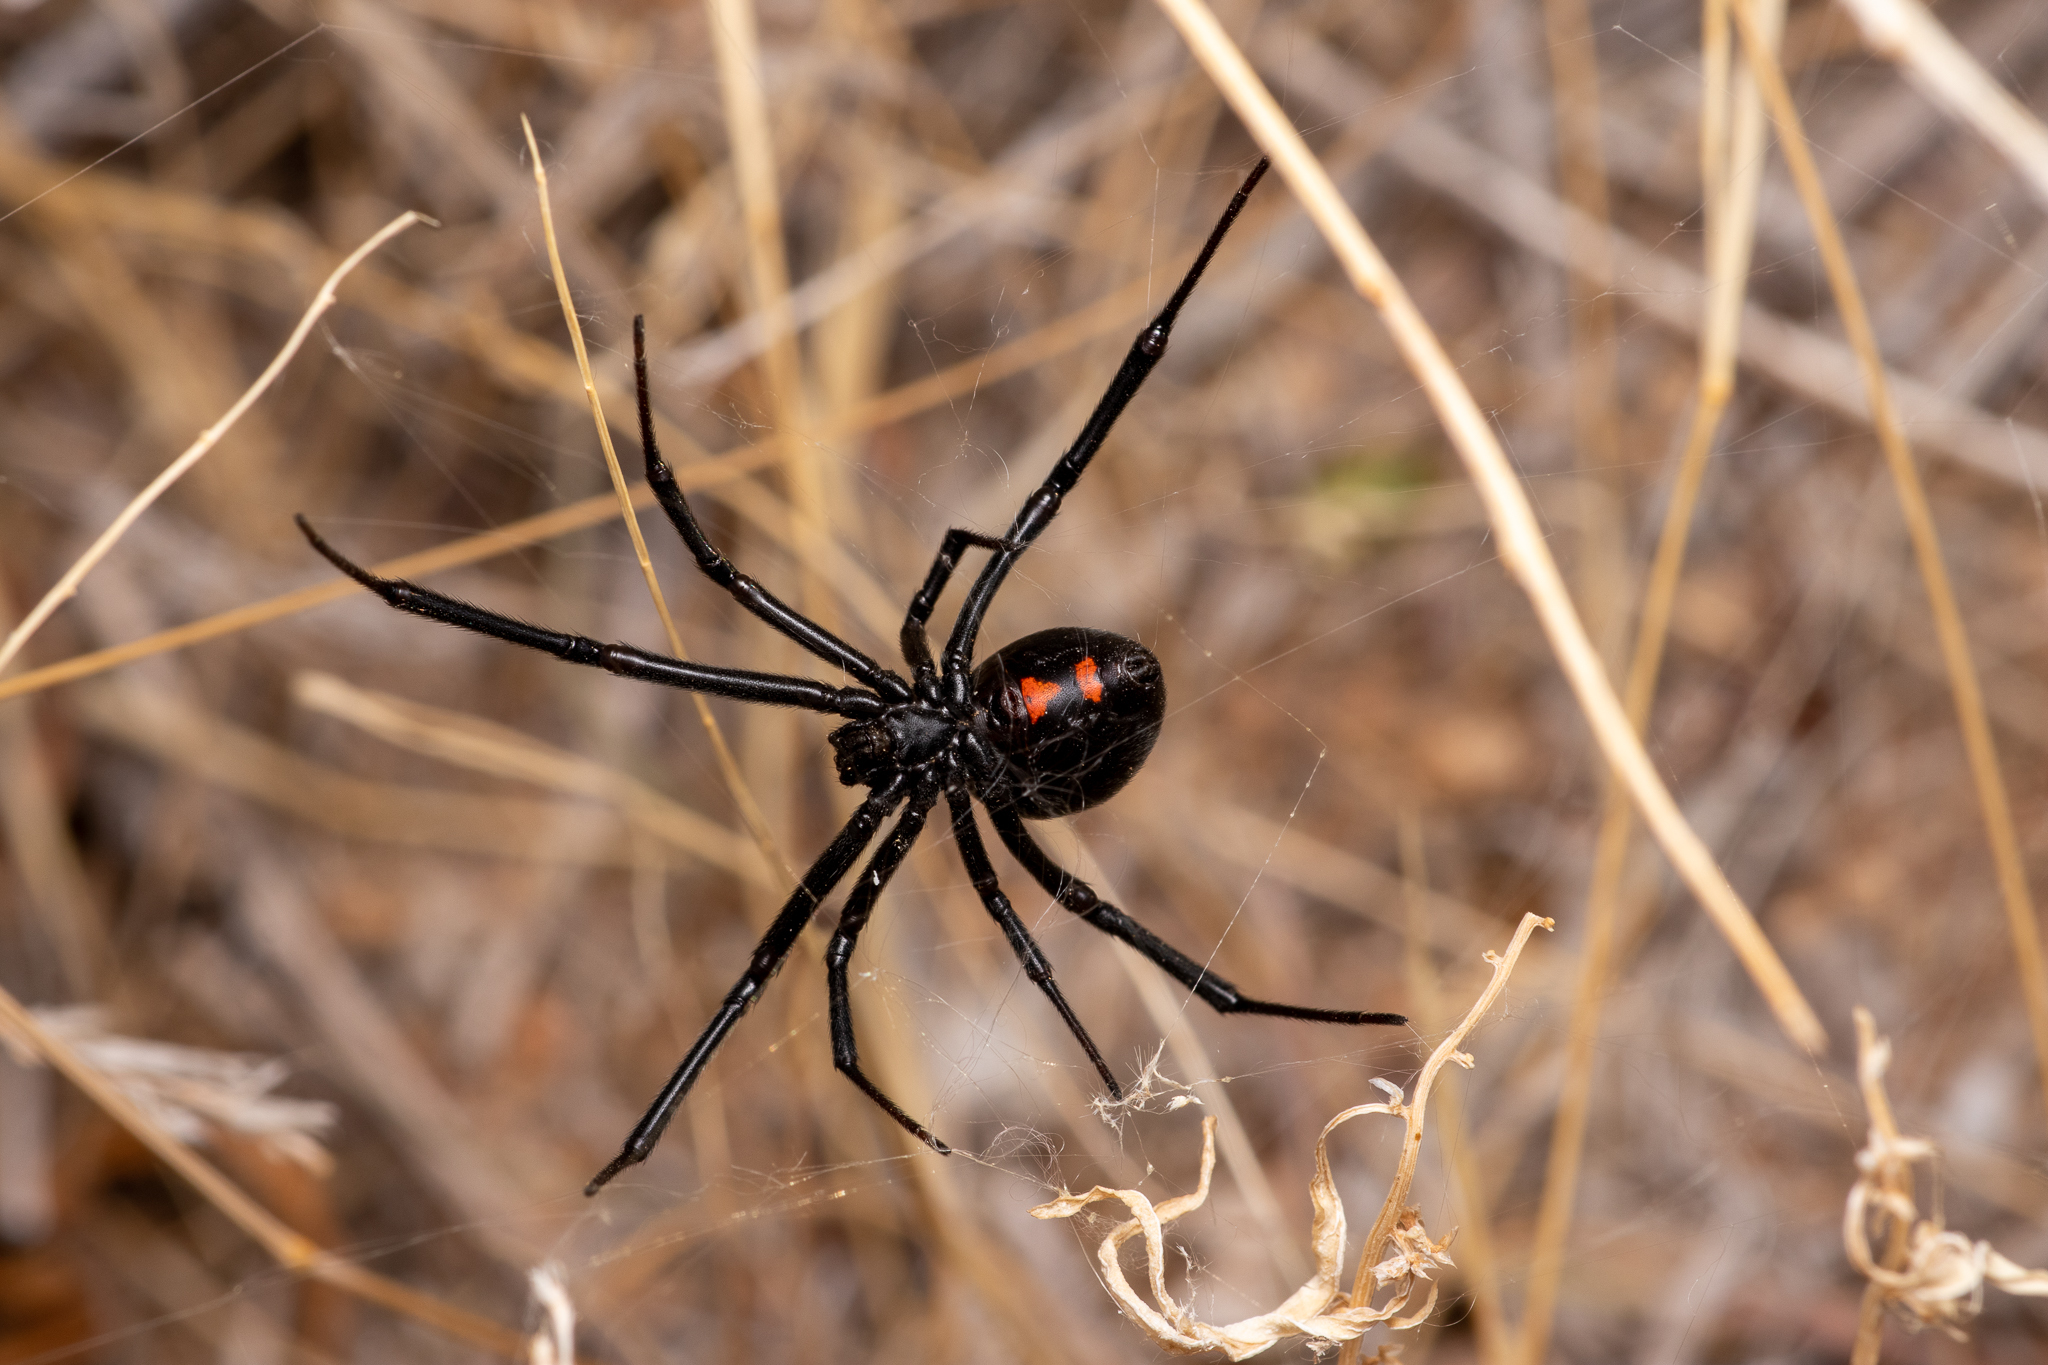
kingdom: Animalia
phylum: Arthropoda
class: Arachnida
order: Araneae
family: Theridiidae
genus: Latrodectus
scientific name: Latrodectus hesperus
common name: Western black widow
